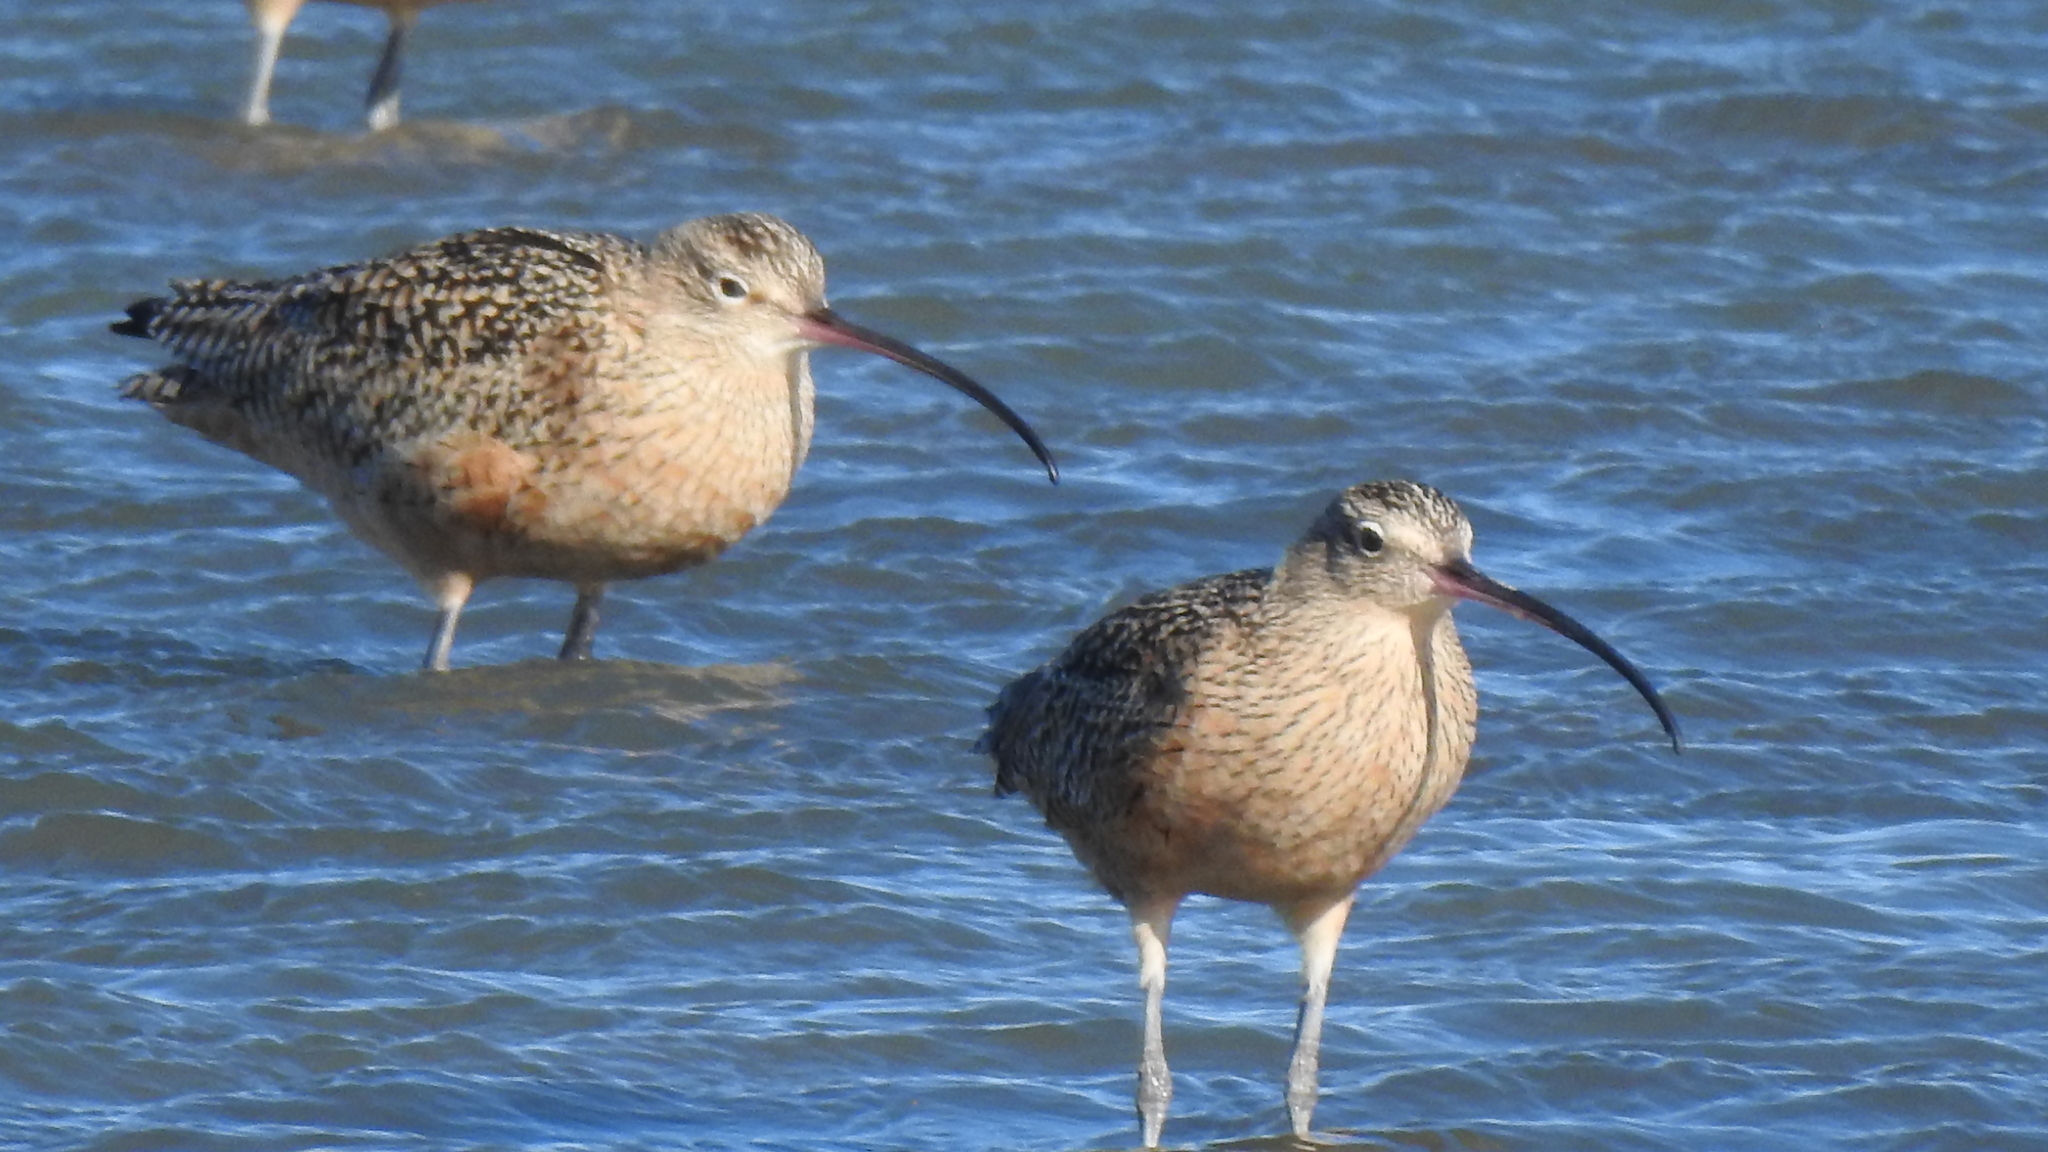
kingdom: Animalia
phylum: Chordata
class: Aves
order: Charadriiformes
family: Scolopacidae
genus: Numenius
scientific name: Numenius americanus
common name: Long-billed curlew
